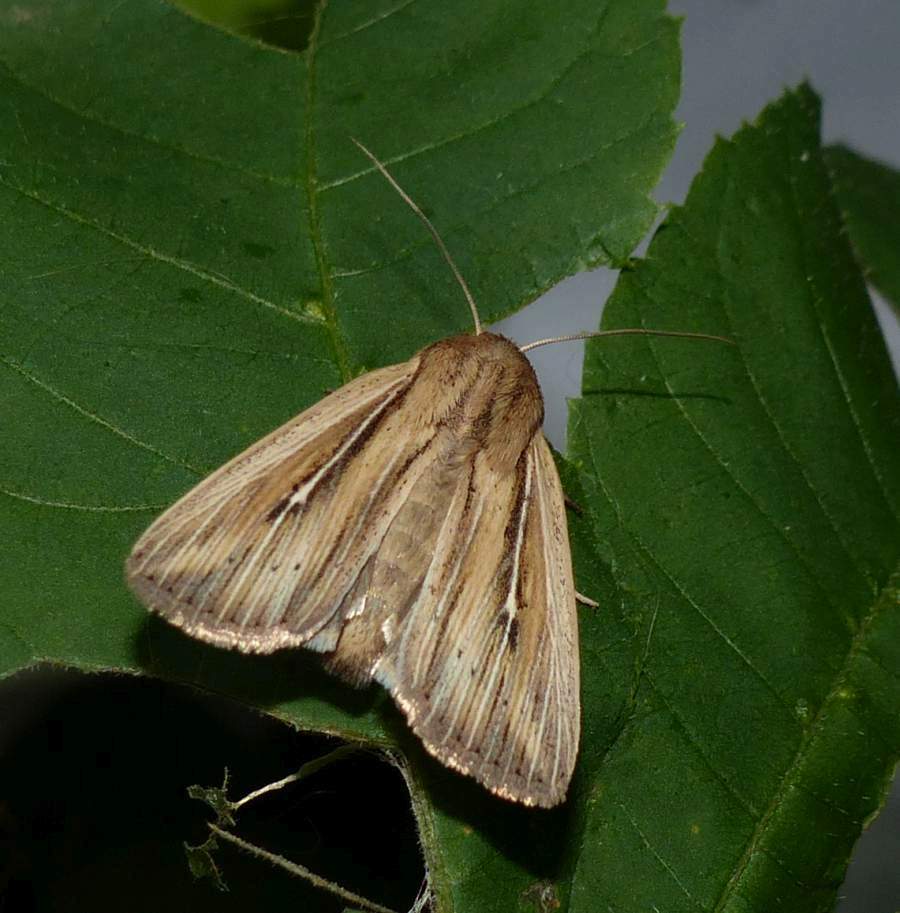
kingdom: Animalia
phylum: Arthropoda
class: Insecta
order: Lepidoptera
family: Noctuidae
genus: Leucania
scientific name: Leucania commoides
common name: Two-lined wainscot
